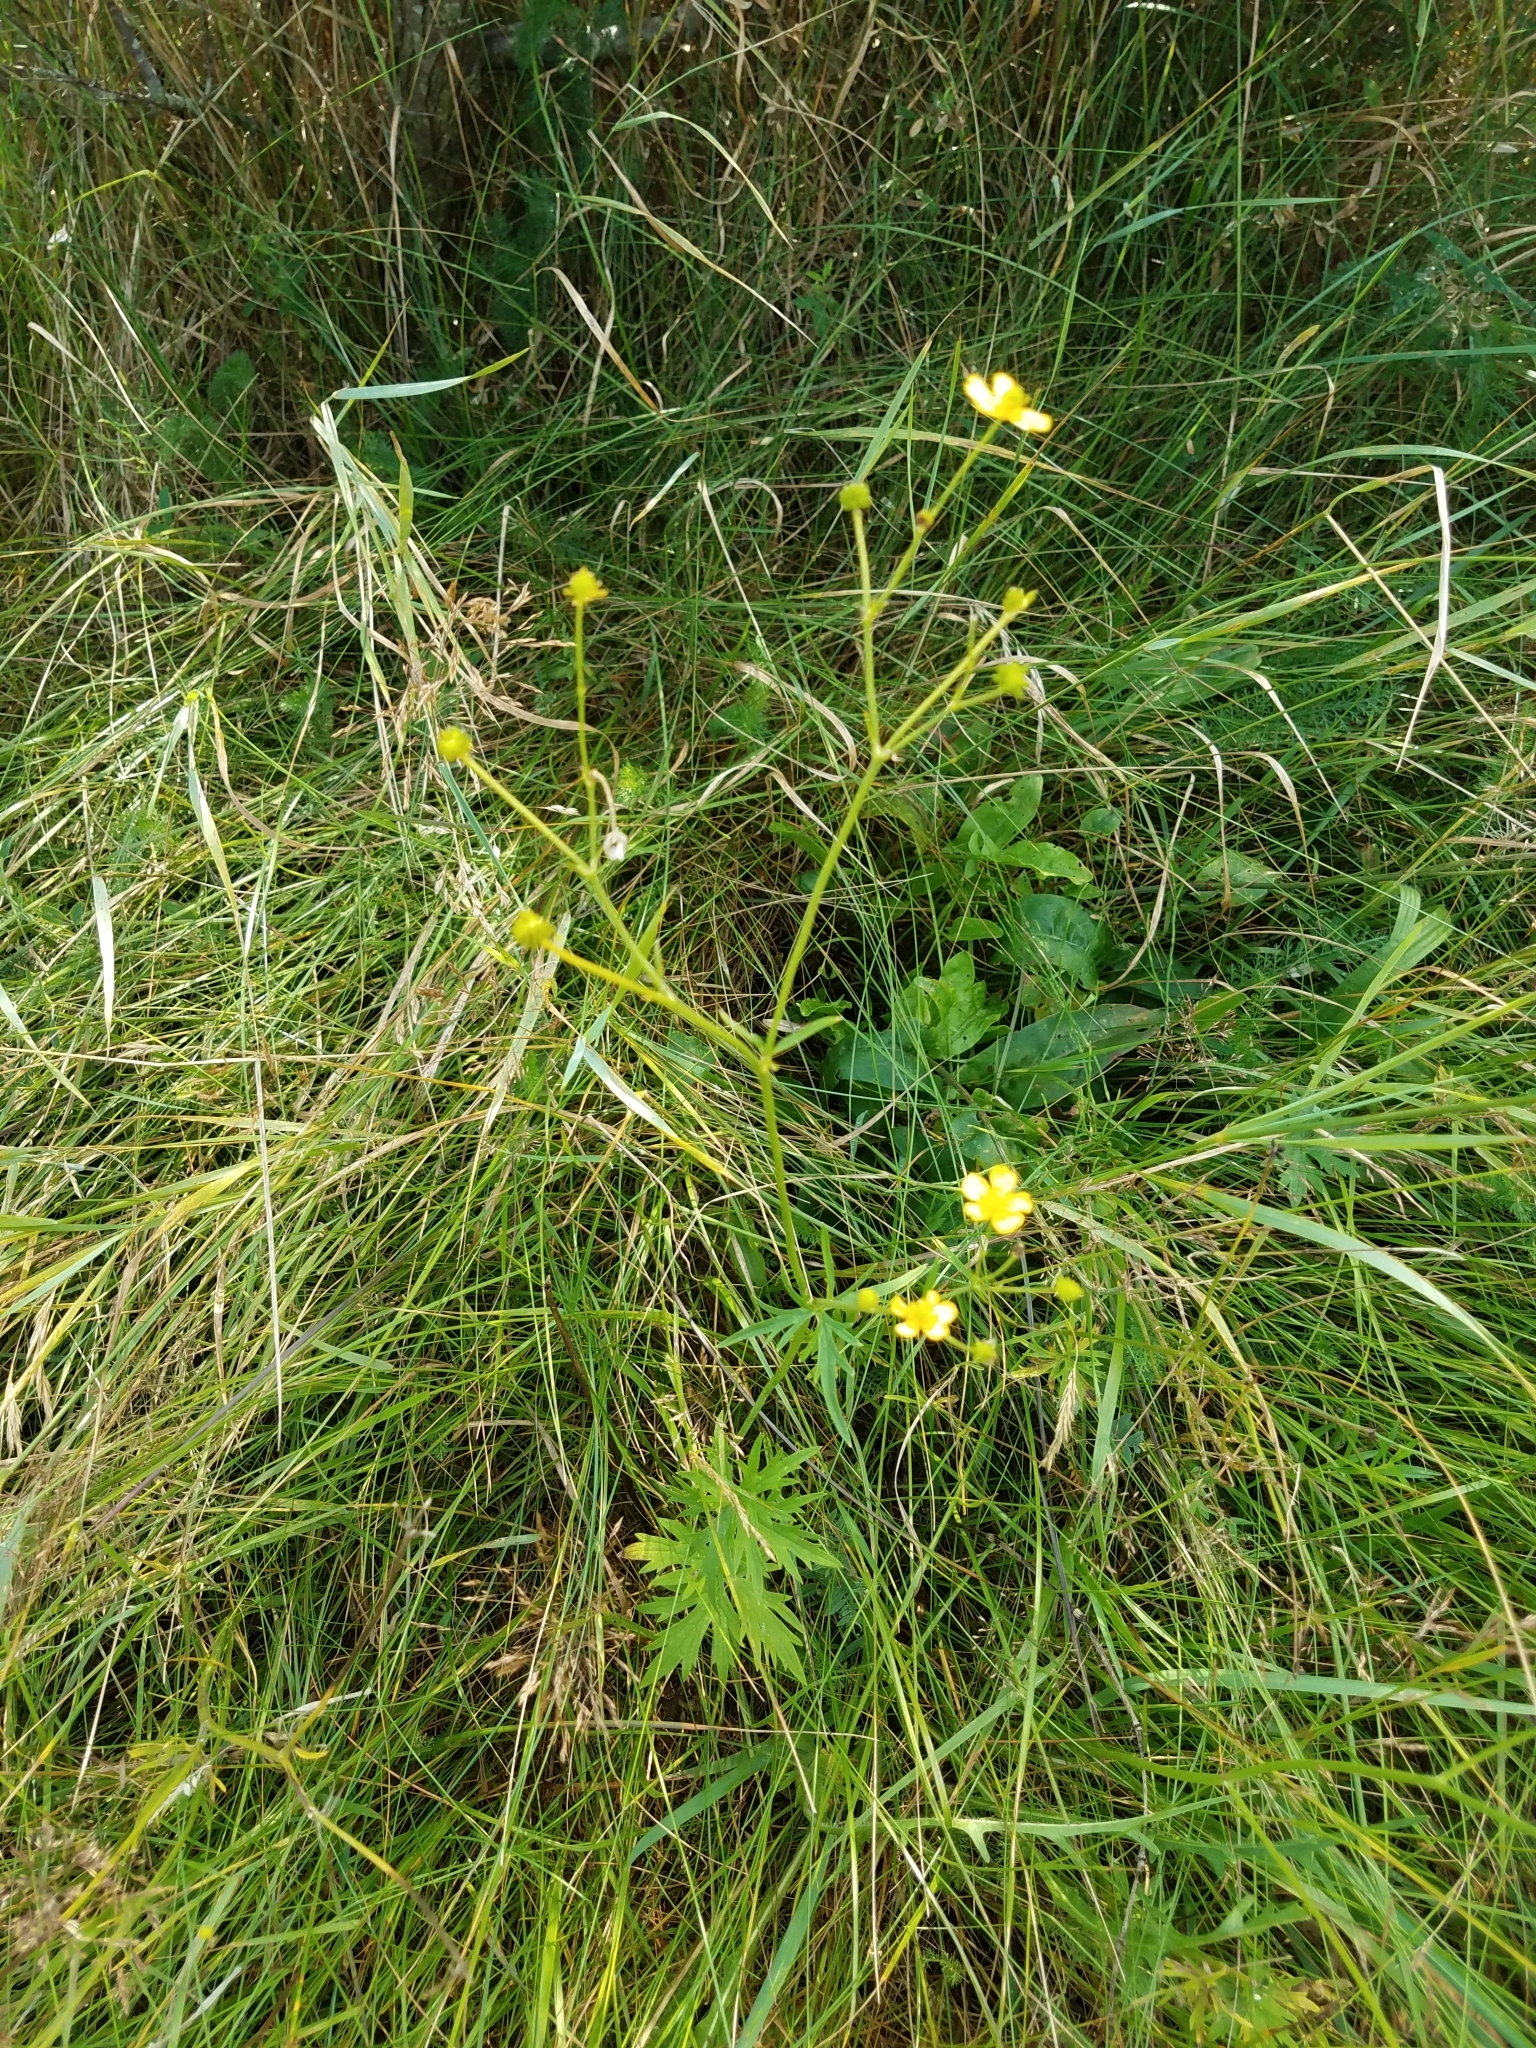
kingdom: Plantae
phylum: Tracheophyta
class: Magnoliopsida
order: Ranunculales
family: Ranunculaceae
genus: Ranunculus
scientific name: Ranunculus acris
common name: Meadow buttercup
